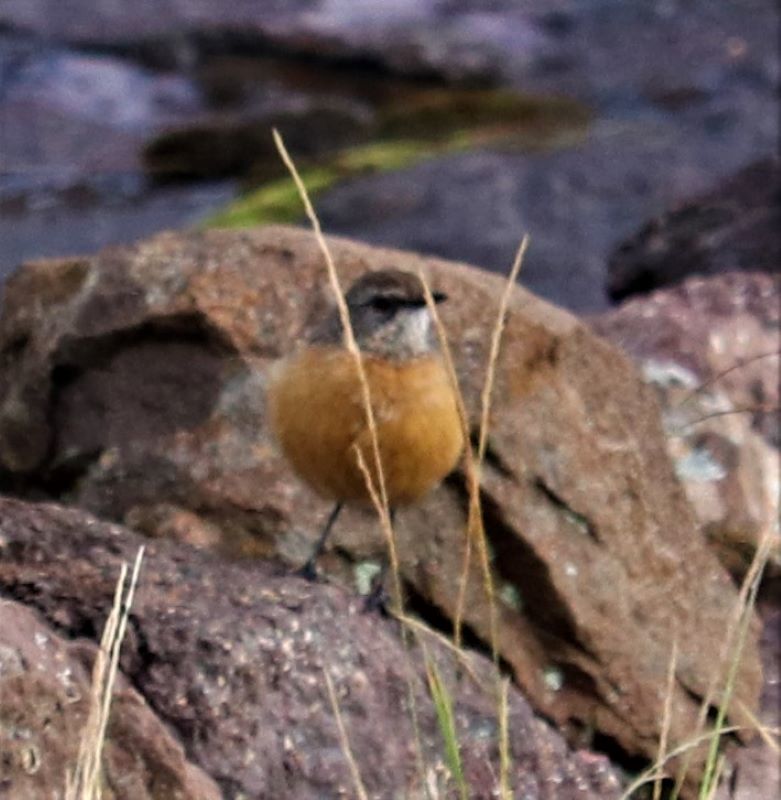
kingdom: Animalia
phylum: Chordata
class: Aves
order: Passeriformes
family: Chaetopidae
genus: Chaetops
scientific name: Chaetops aurantius
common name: Drakensberg rockjumper
